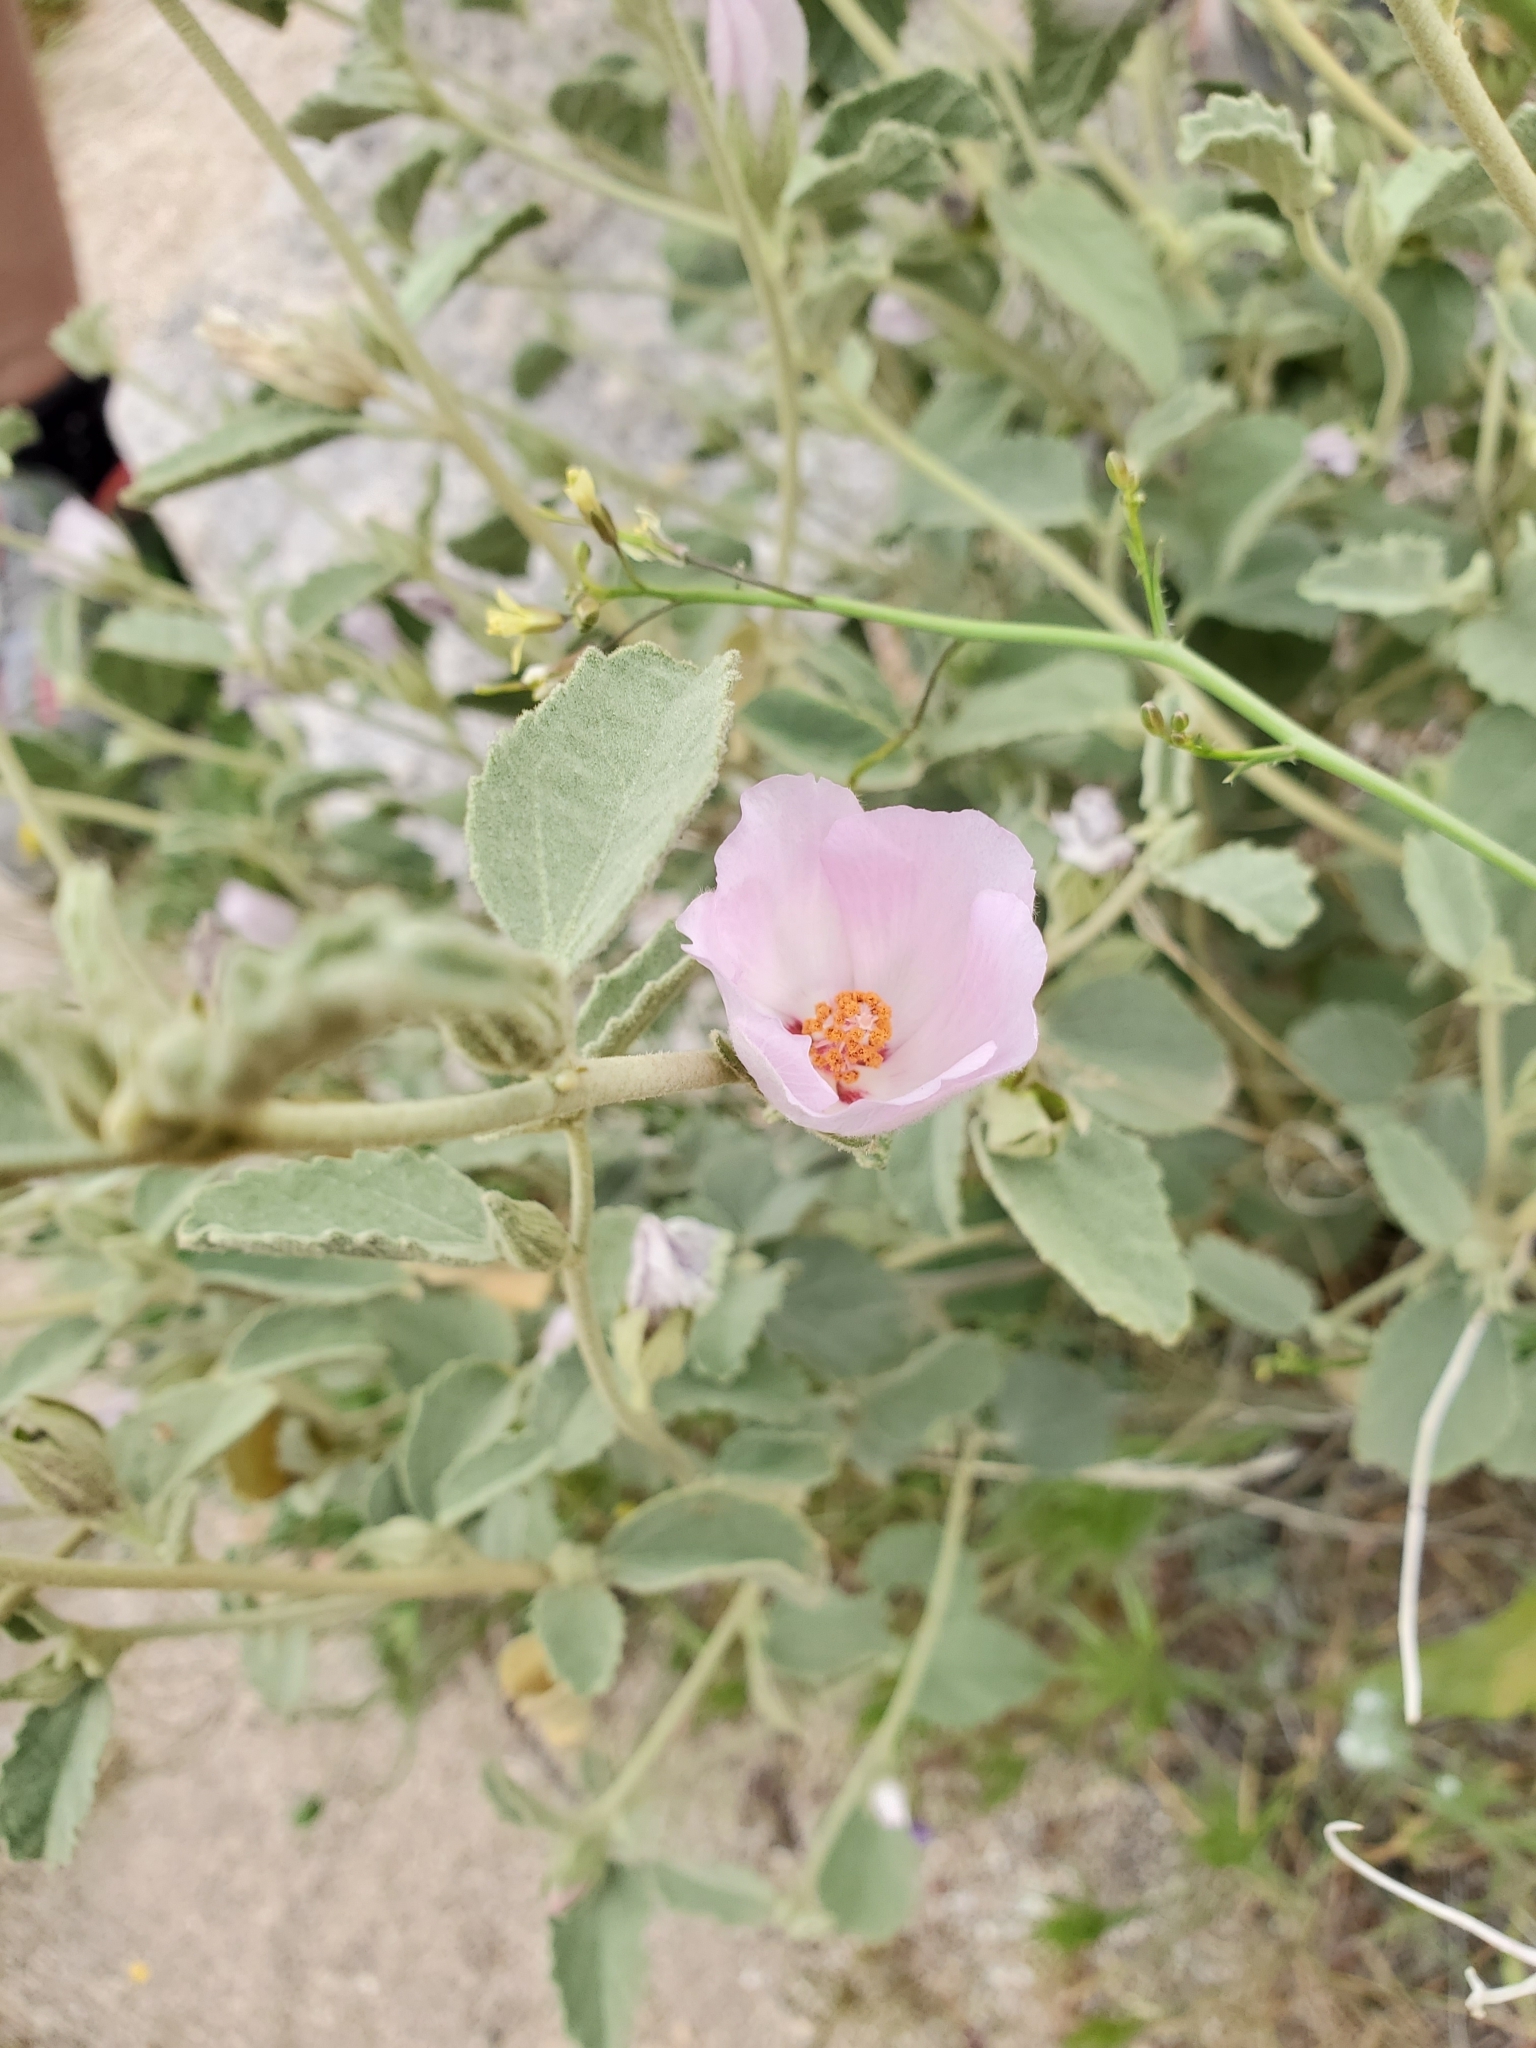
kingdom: Plantae
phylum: Tracheophyta
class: Magnoliopsida
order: Malvales
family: Malvaceae
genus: Hibiscus
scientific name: Hibiscus denudatus
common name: Paleface
